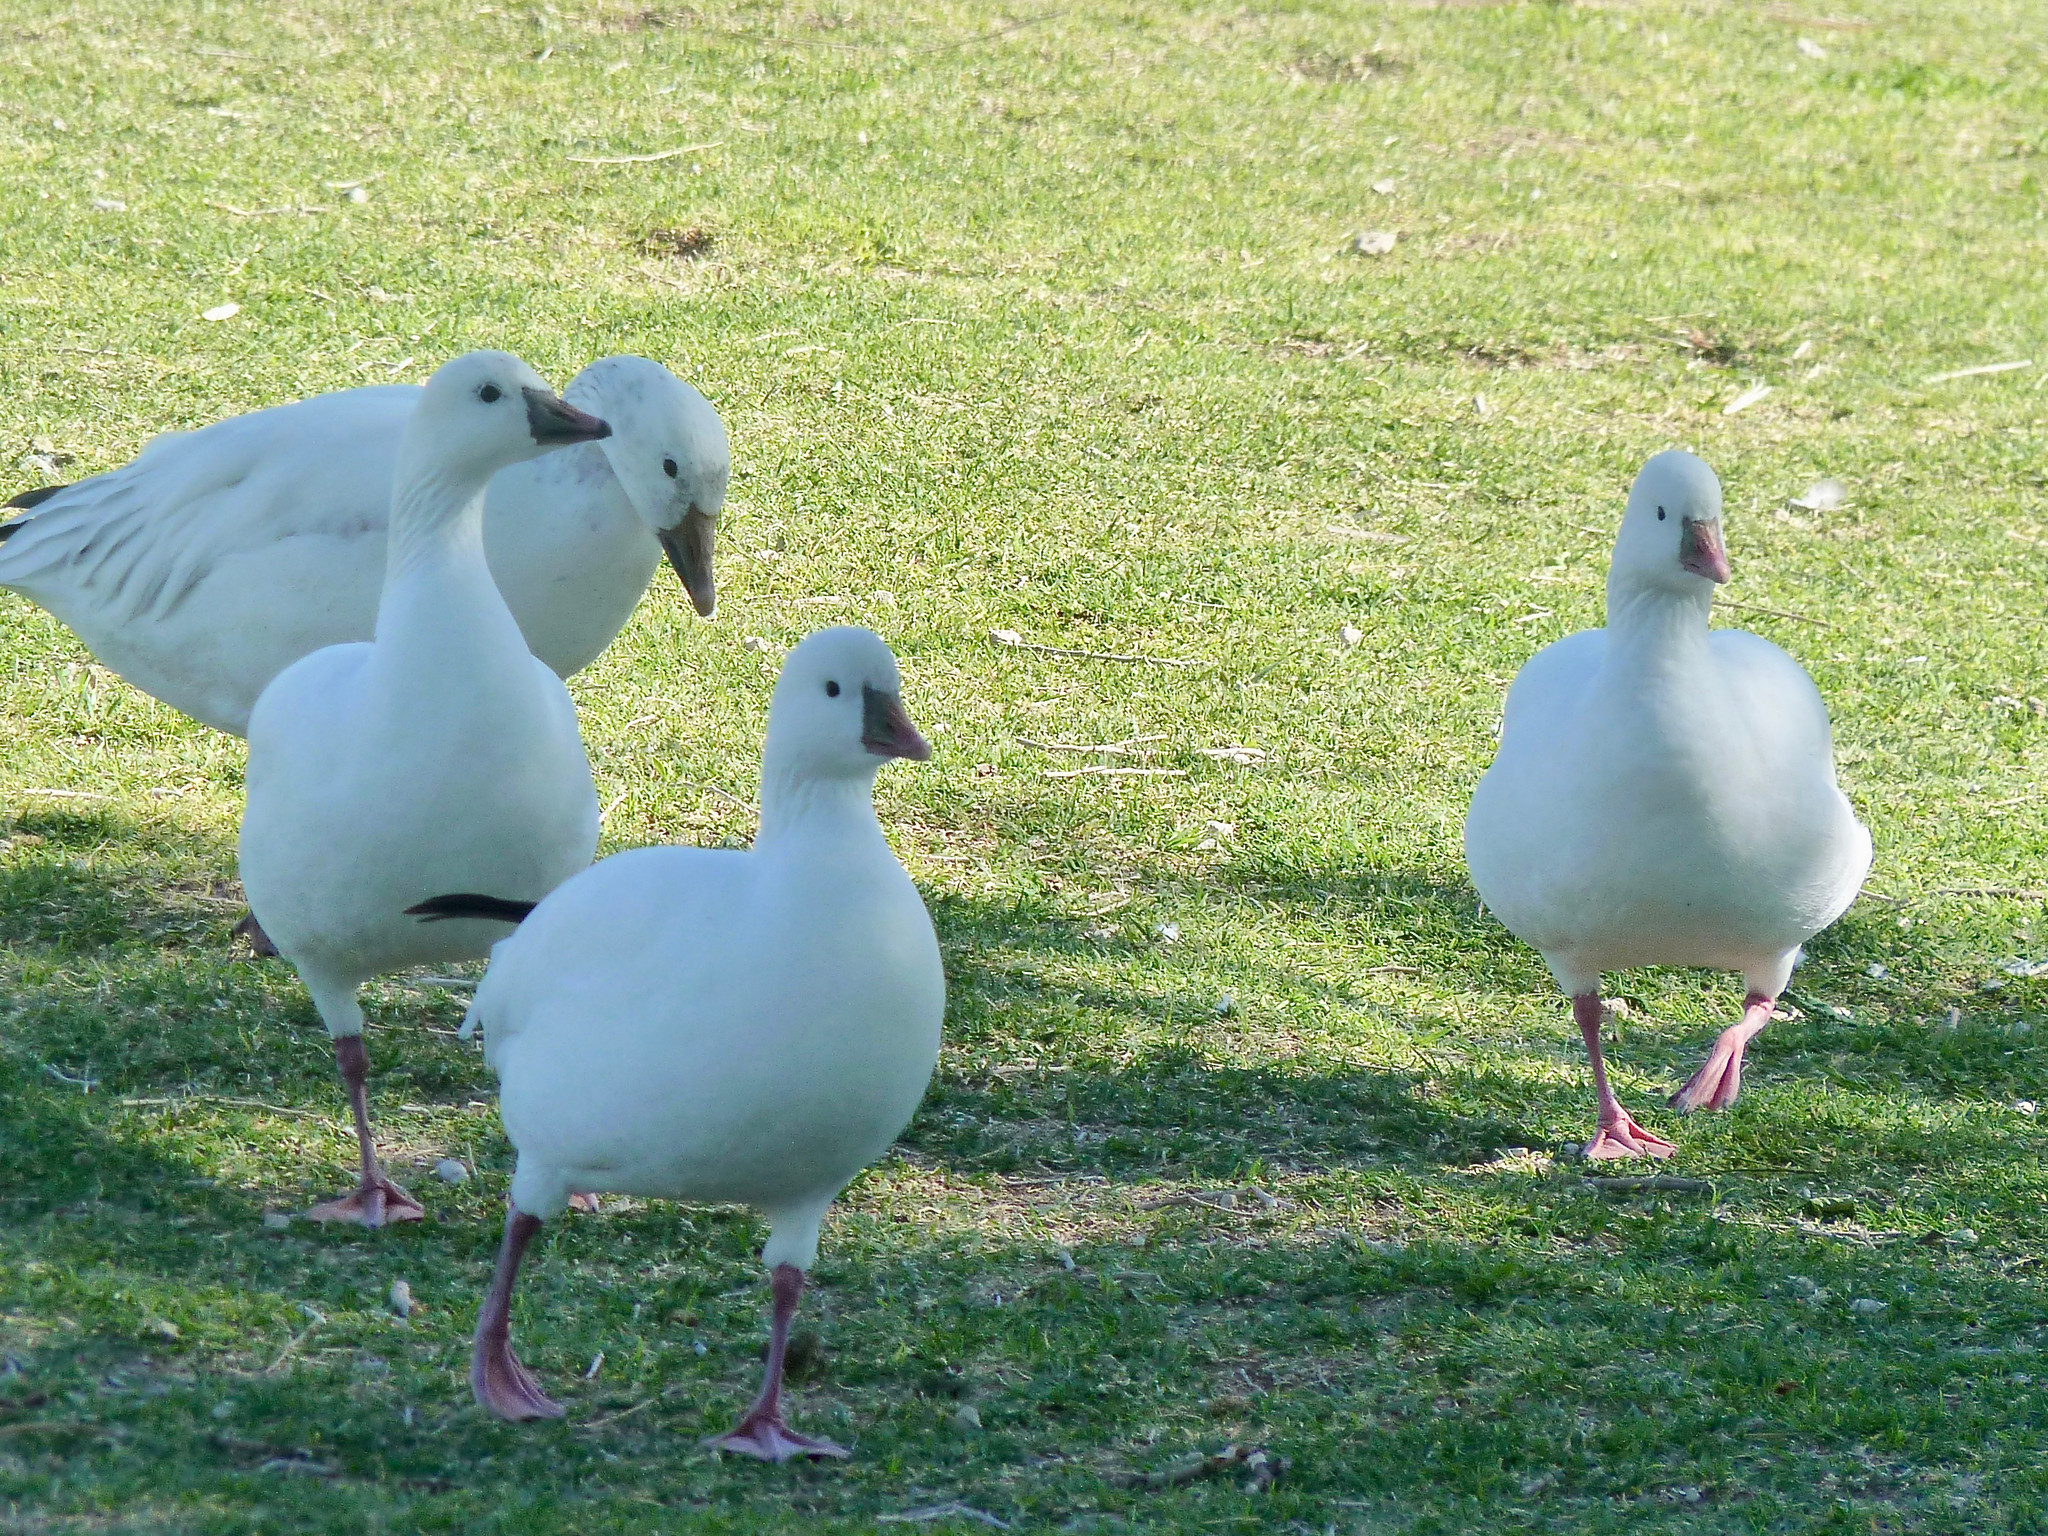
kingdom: Animalia
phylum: Chordata
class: Aves
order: Anseriformes
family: Anatidae
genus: Anser
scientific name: Anser rossii
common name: Ross's goose
